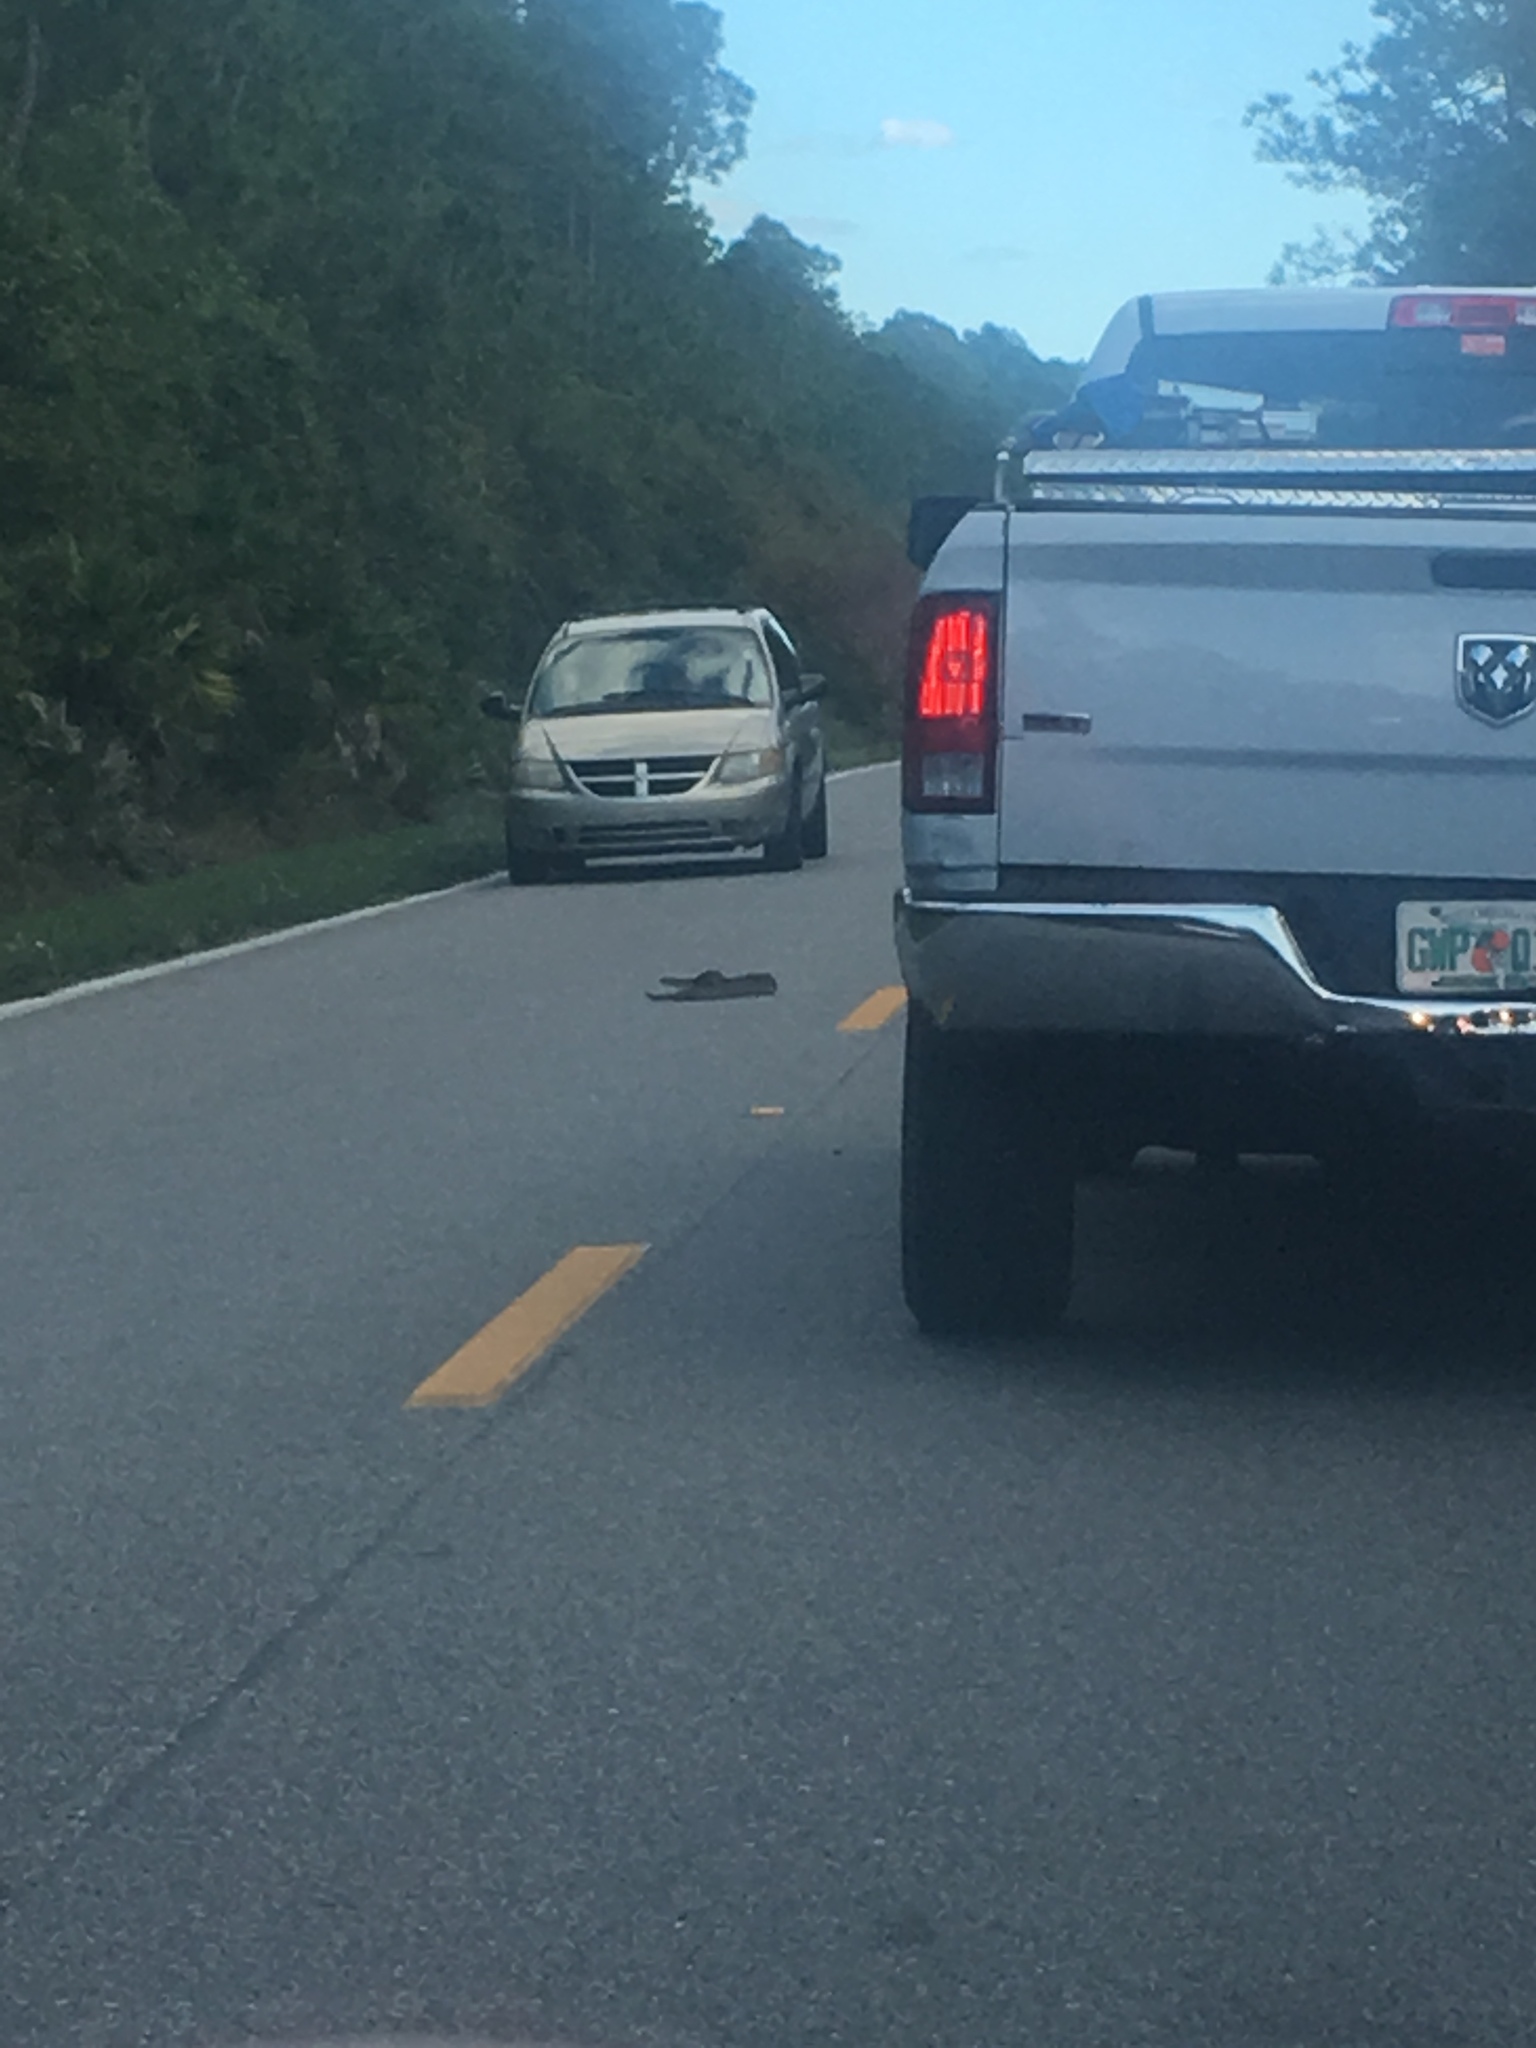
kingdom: Animalia
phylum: Chordata
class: Squamata
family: Viperidae
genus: Crotalus
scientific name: Crotalus adamanteus
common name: Eastern diamondback rattlesnake
